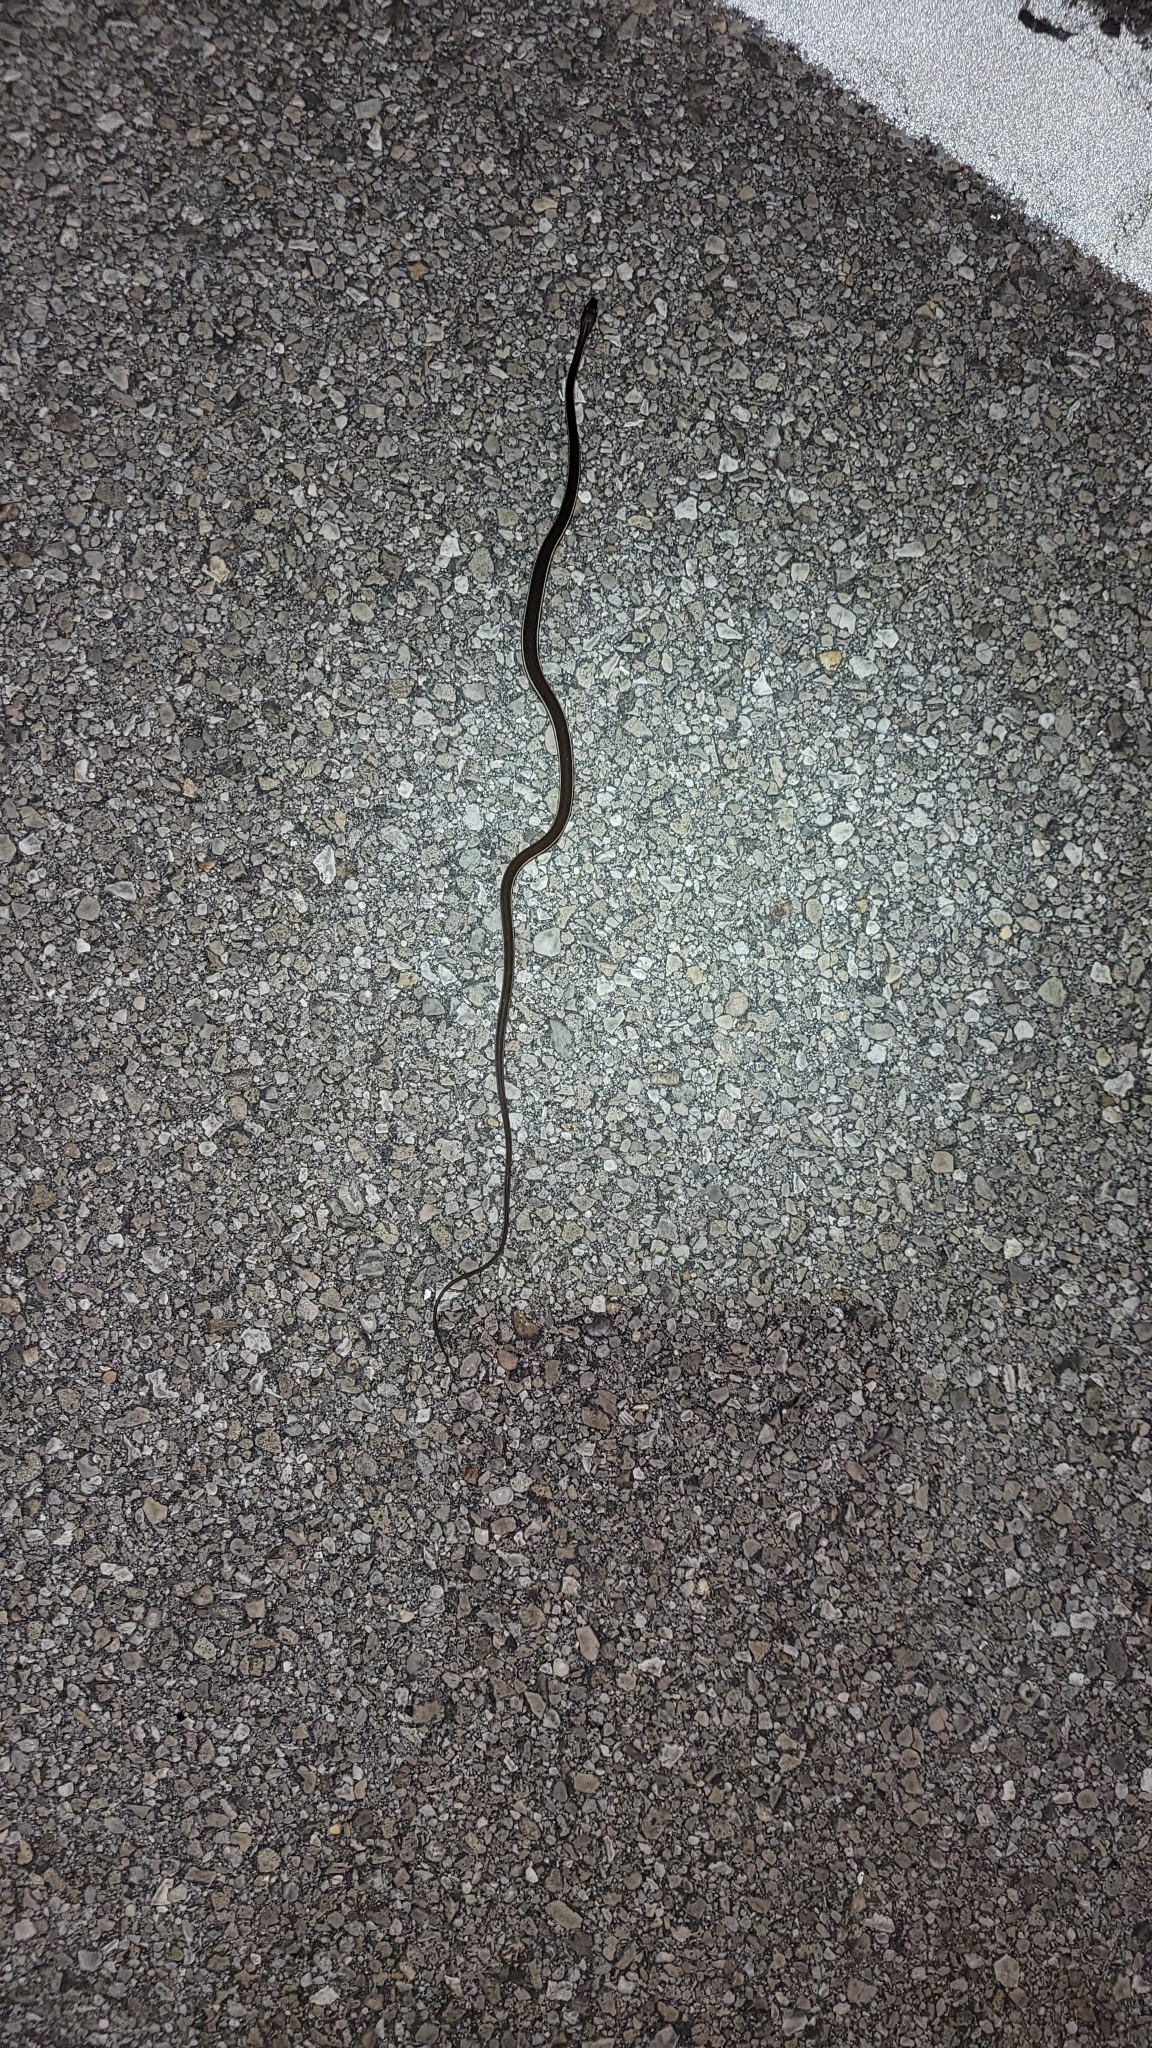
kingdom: Animalia
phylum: Chordata
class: Squamata
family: Colubridae
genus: Thamnophis
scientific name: Thamnophis saurita
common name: Eastern ribbonsnake
